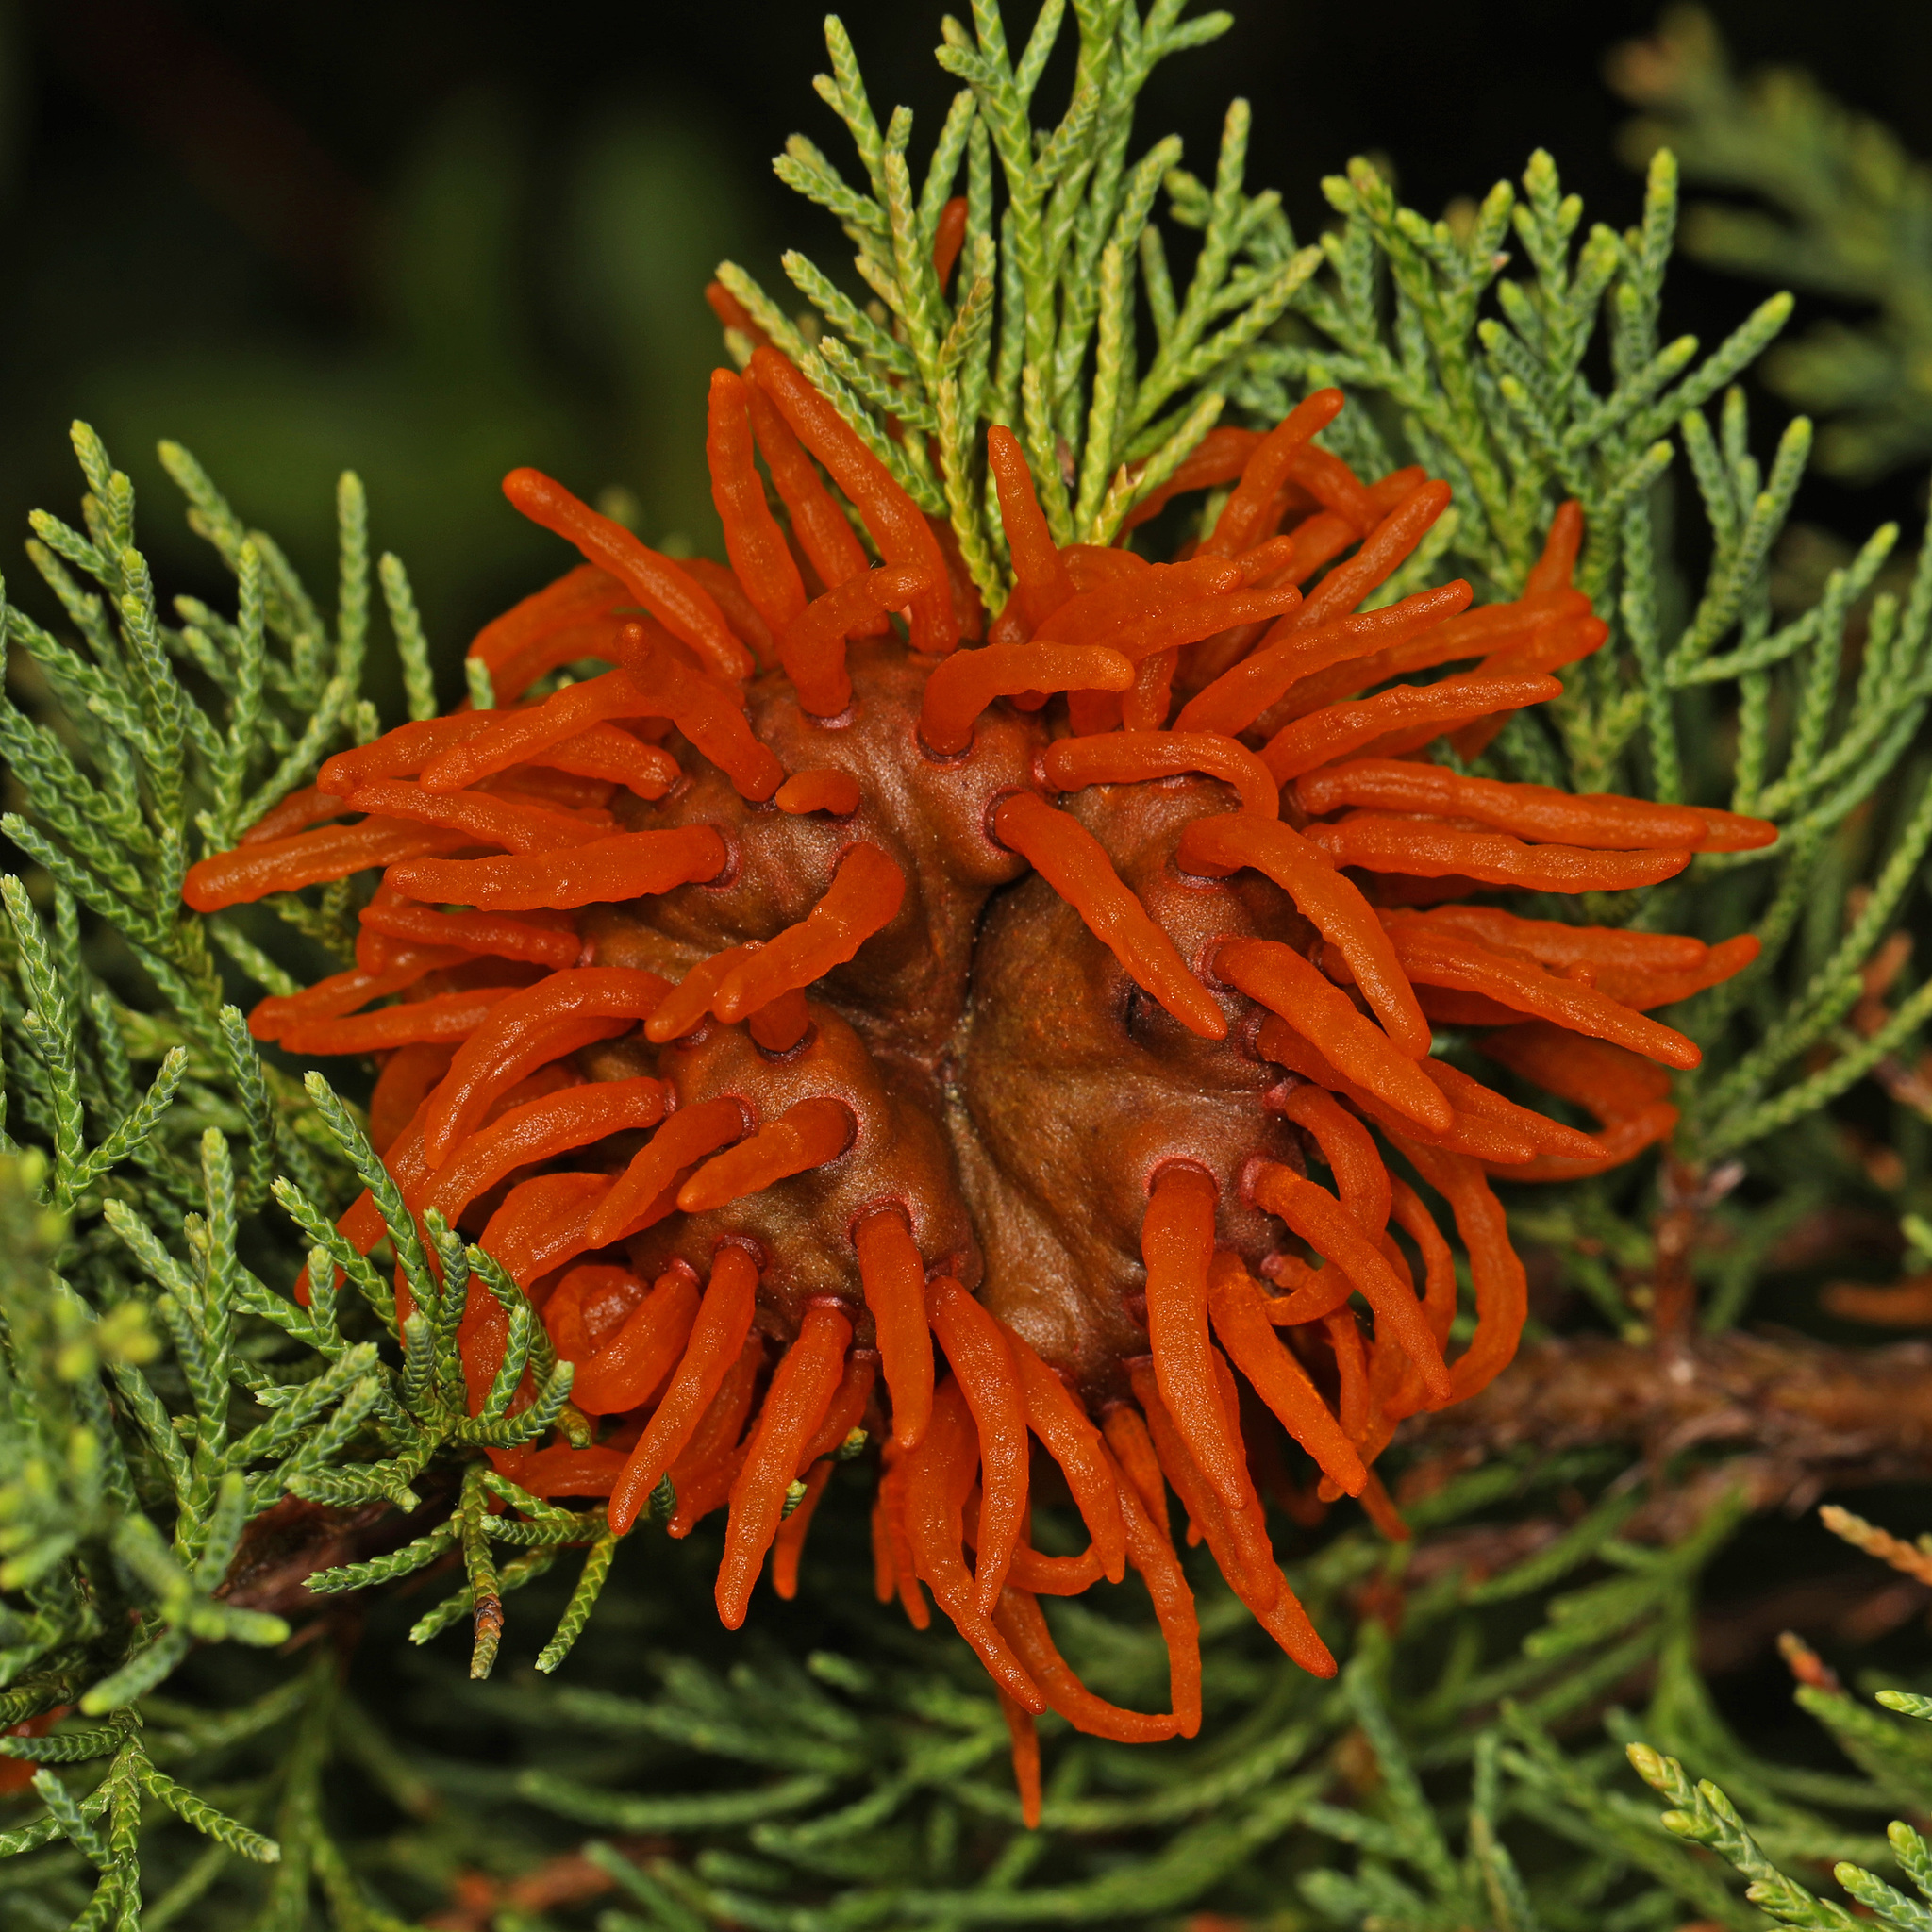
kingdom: Fungi
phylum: Basidiomycota
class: Pucciniomycetes
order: Pucciniales
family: Gymnosporangiaceae
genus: Gymnosporangium
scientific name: Gymnosporangium juniperi-virginianae
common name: Juniper-apple rust
